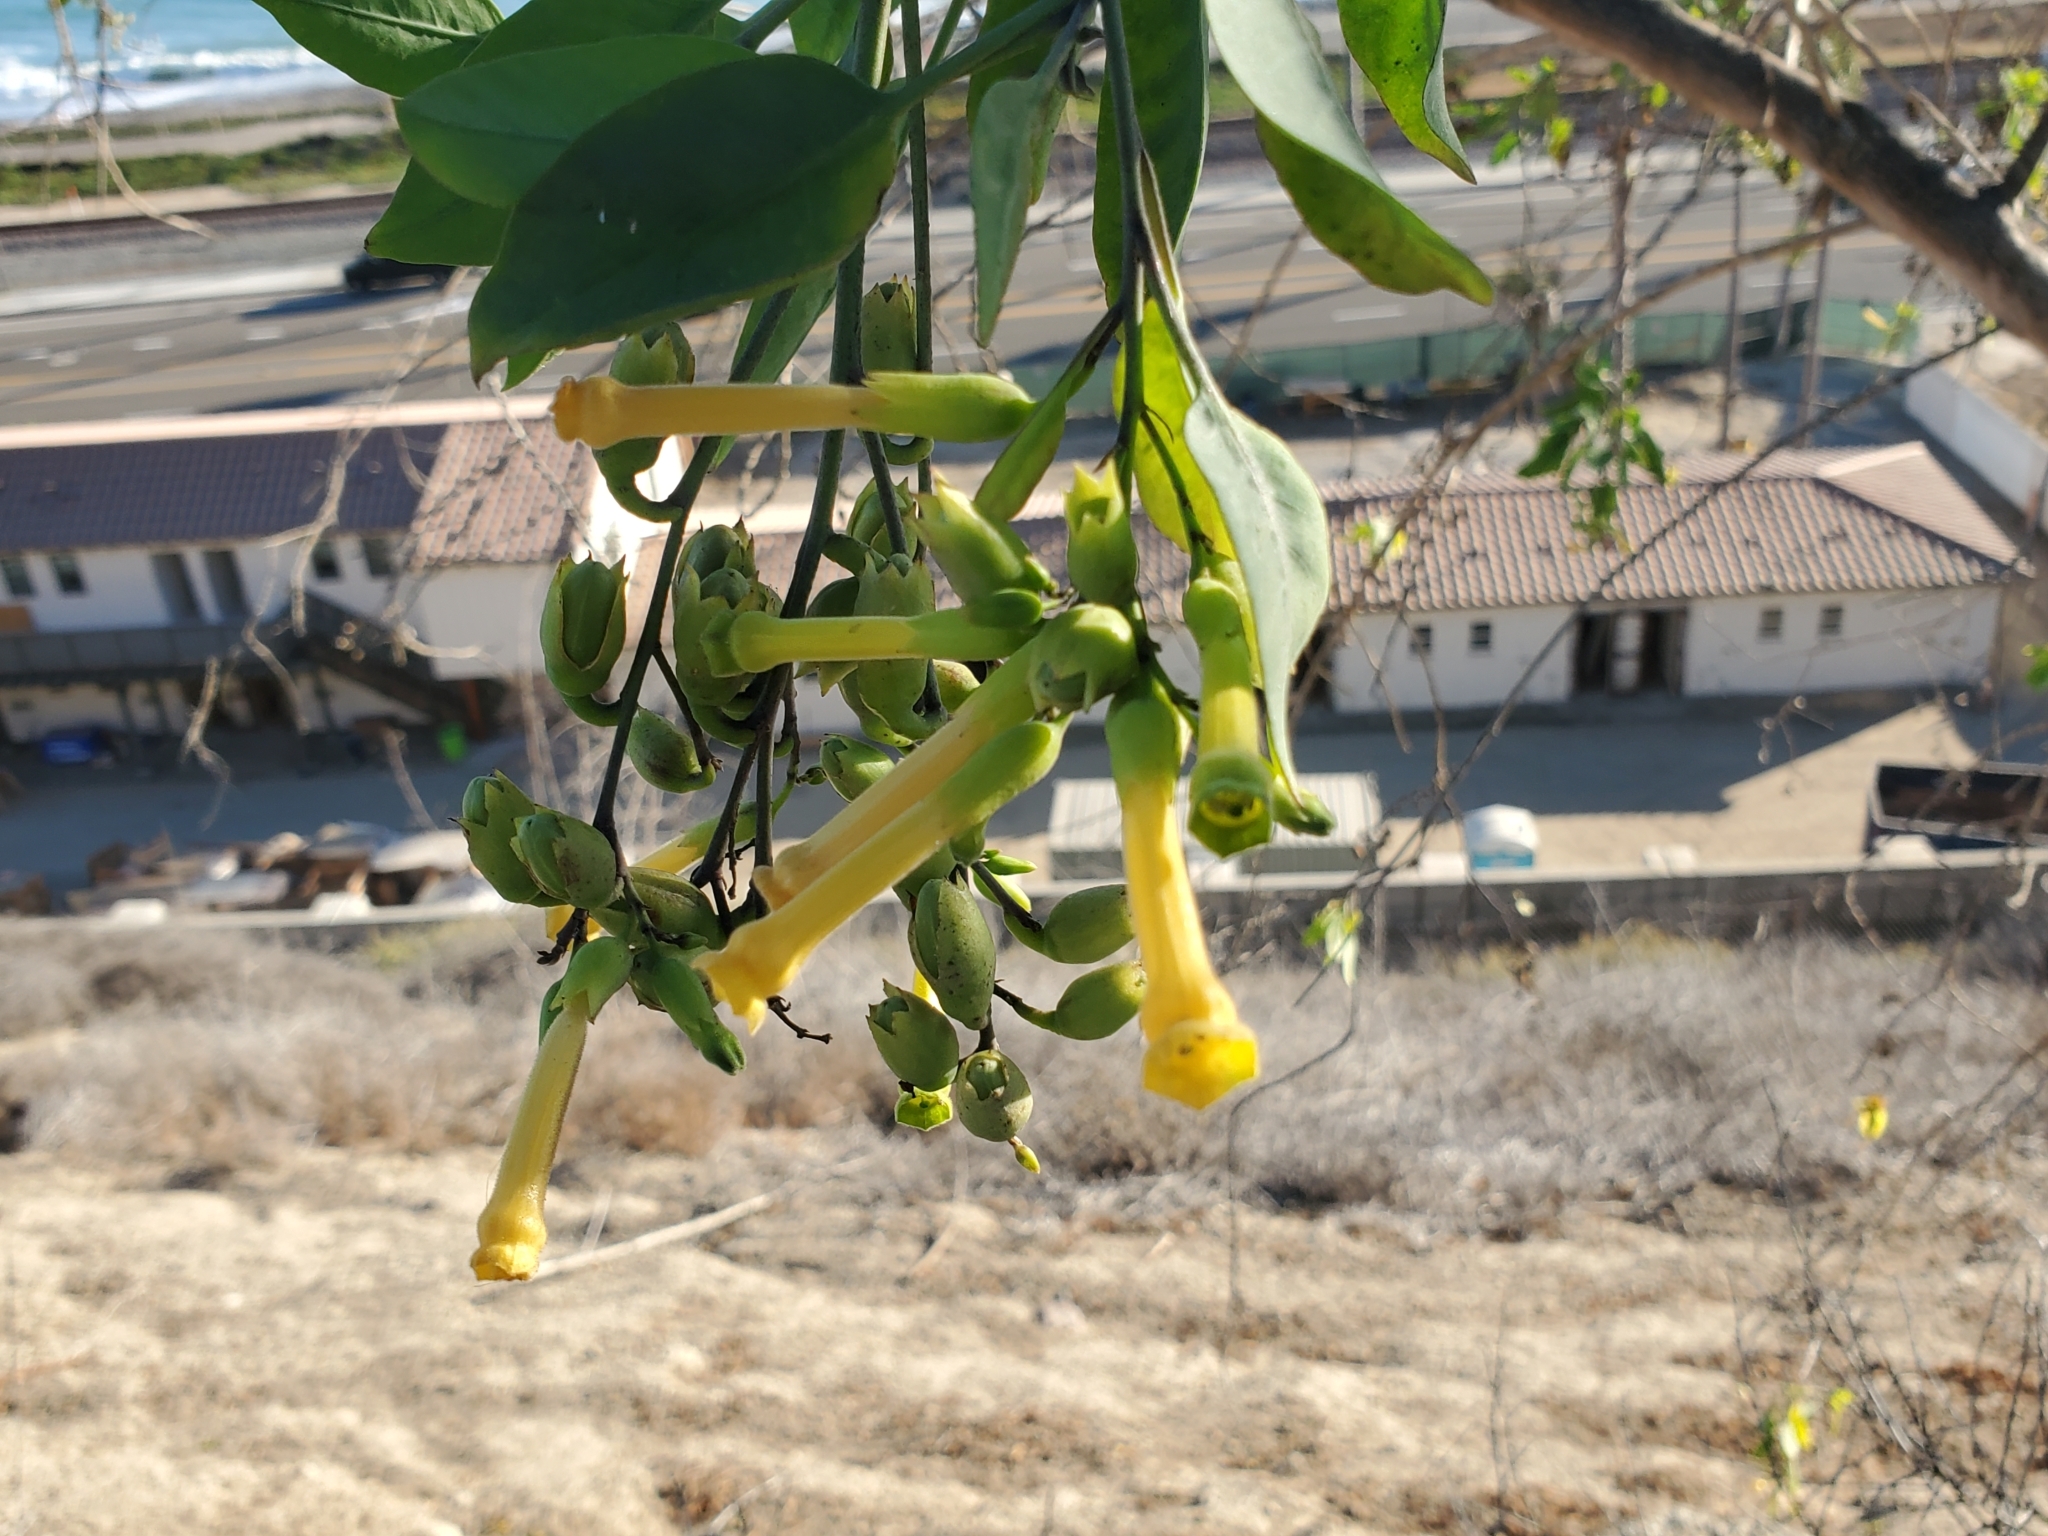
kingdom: Plantae
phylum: Tracheophyta
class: Magnoliopsida
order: Solanales
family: Solanaceae
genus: Nicotiana
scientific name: Nicotiana glauca
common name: Tree tobacco
